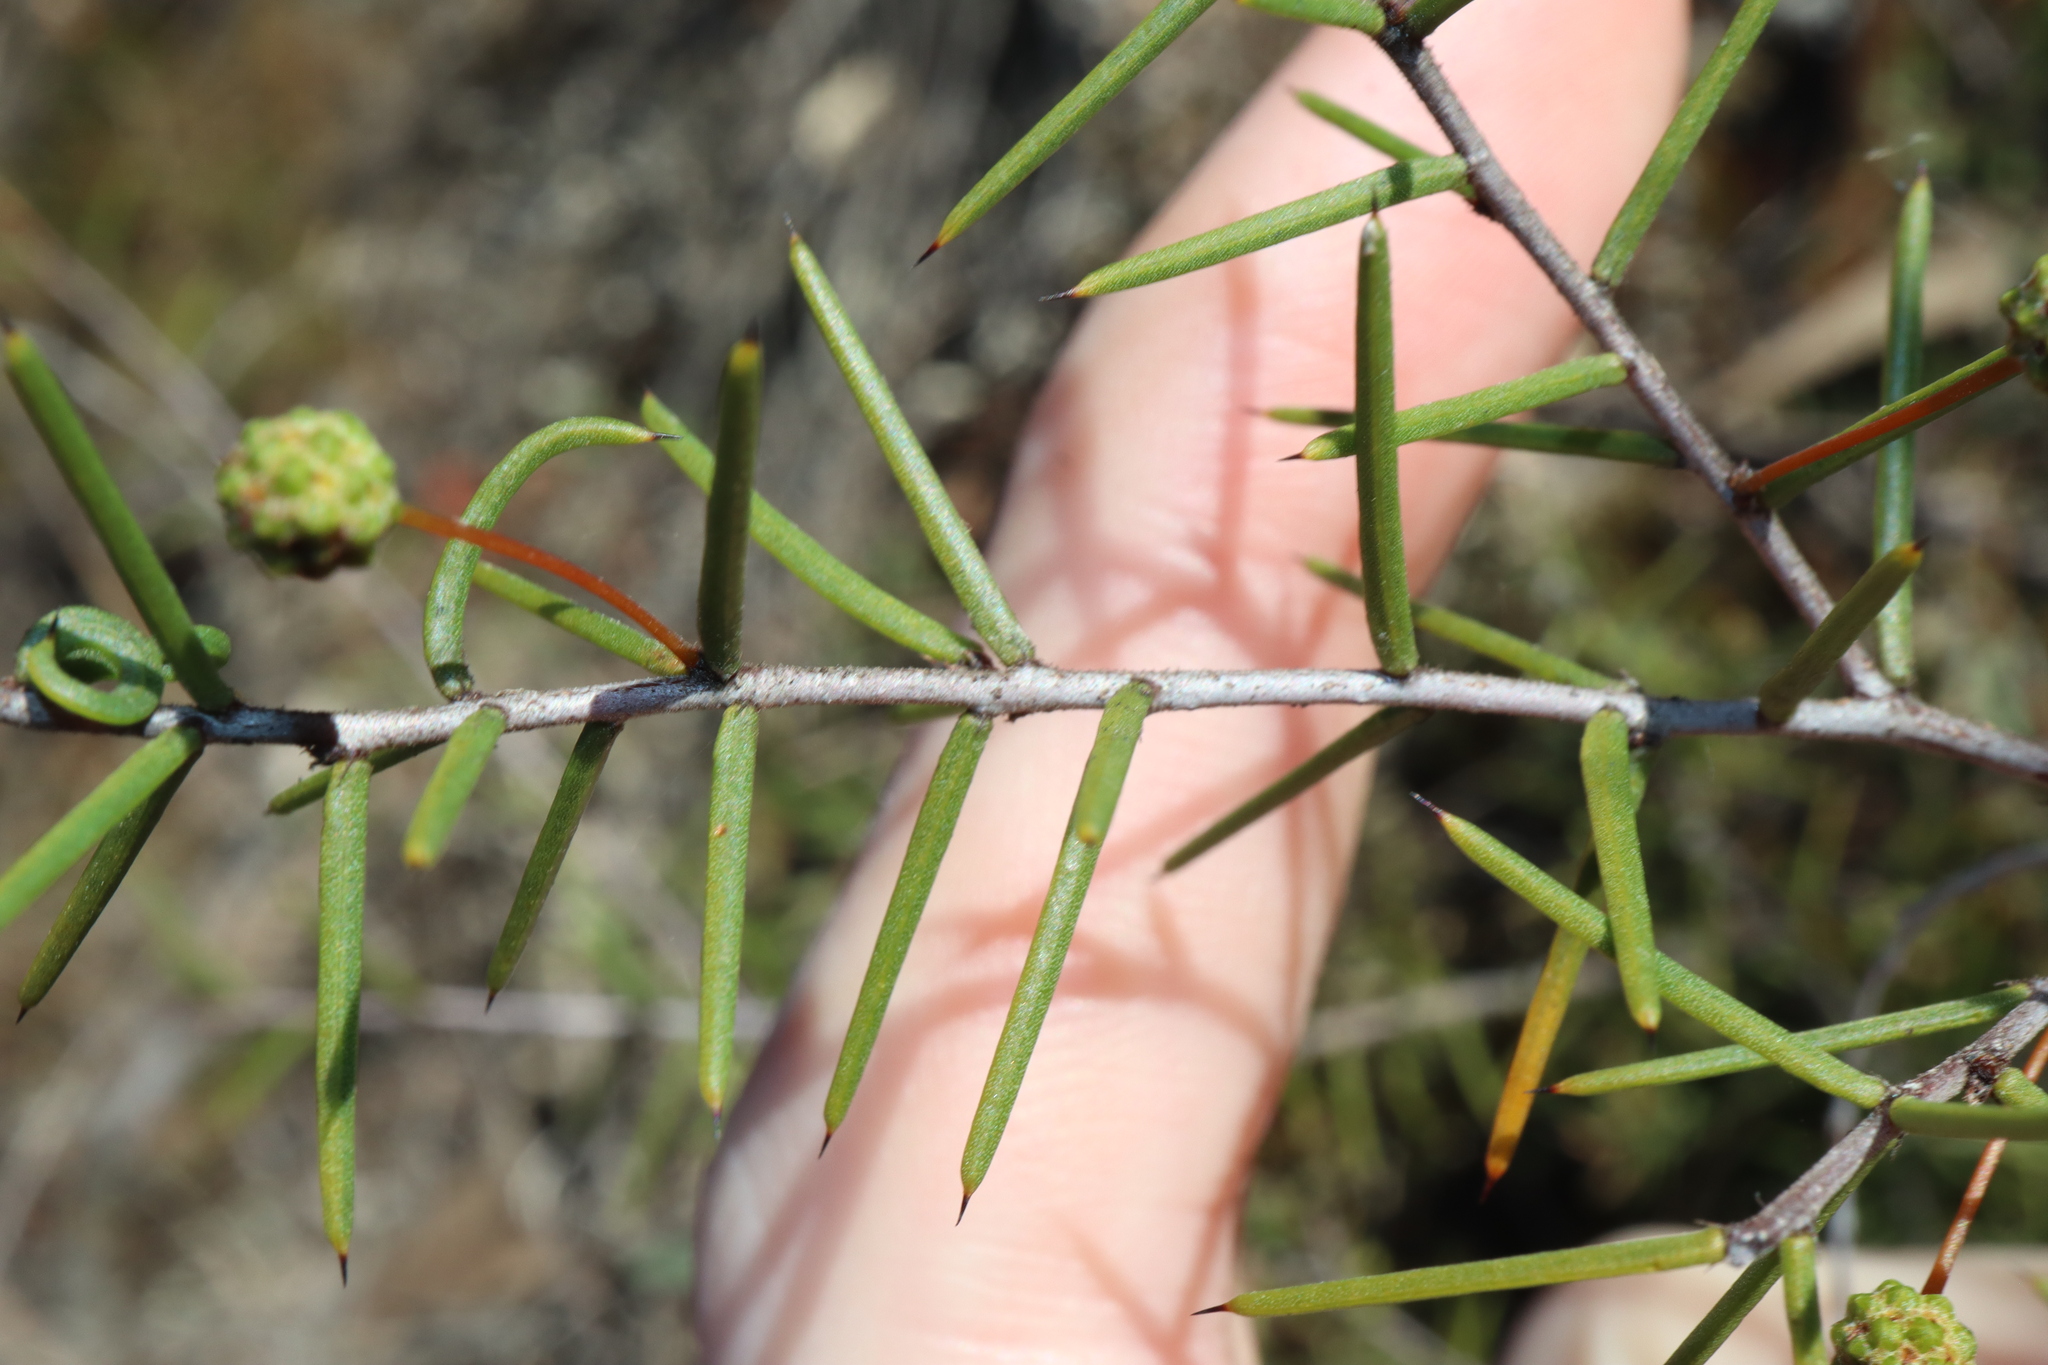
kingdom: Plantae
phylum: Tracheophyta
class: Magnoliopsida
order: Fabales
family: Fabaceae
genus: Acacia
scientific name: Acacia brownii
